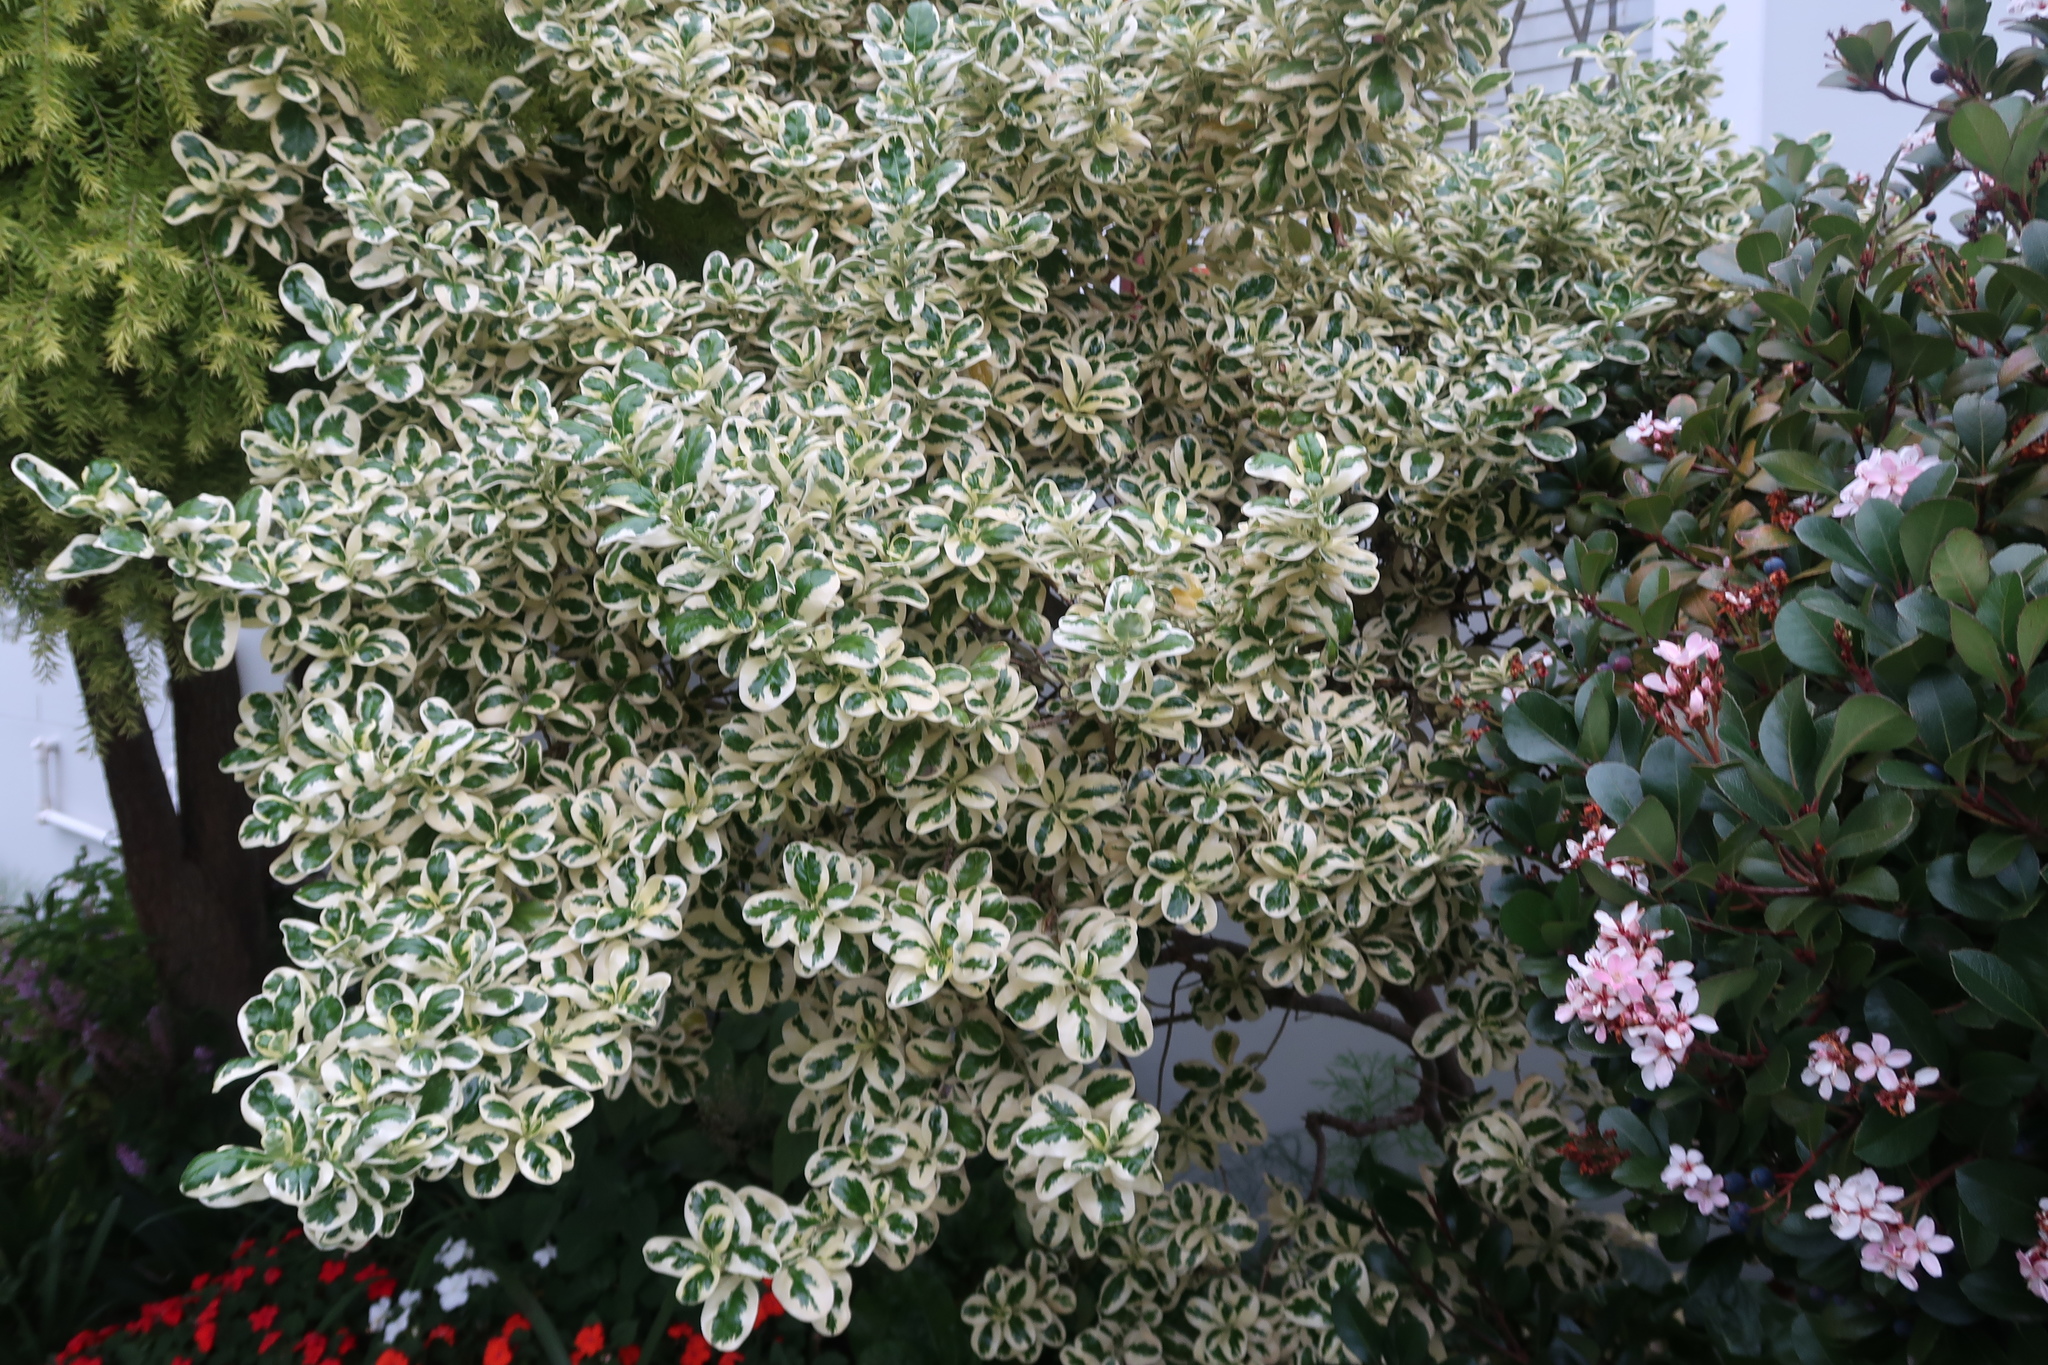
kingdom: Plantae
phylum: Tracheophyta
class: Magnoliopsida
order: Gentianales
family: Rubiaceae
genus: Coprosma
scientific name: Coprosma repens
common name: Tree bedstraw
